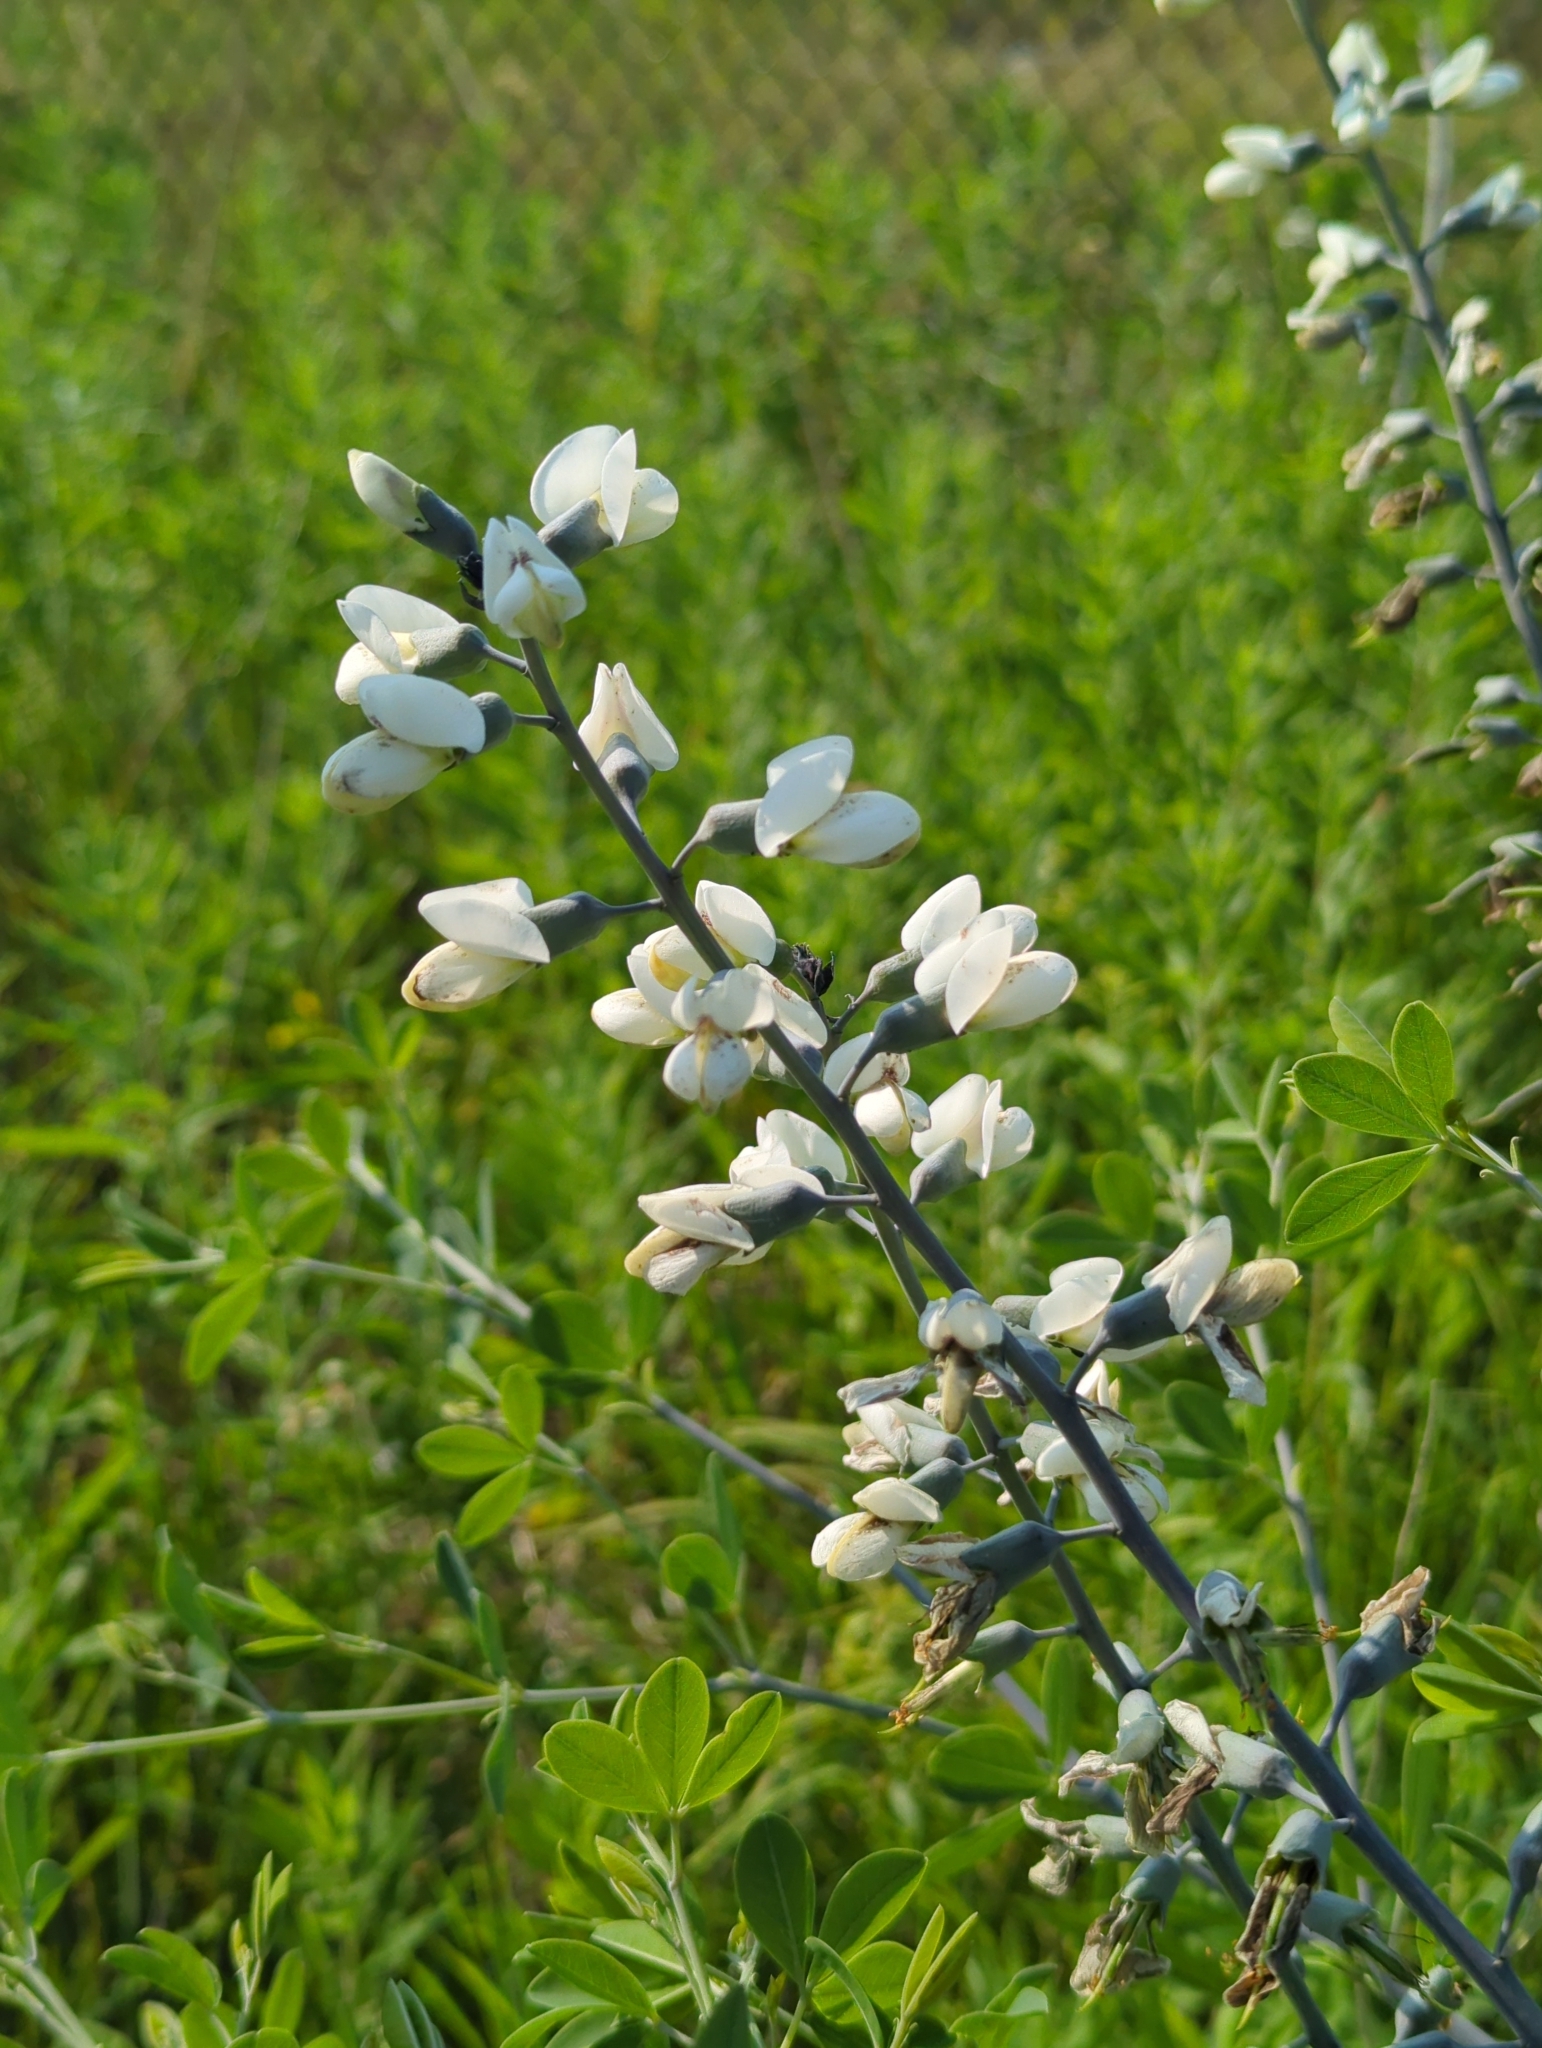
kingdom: Plantae
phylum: Tracheophyta
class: Magnoliopsida
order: Fabales
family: Fabaceae
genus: Baptisia
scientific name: Baptisia alba
